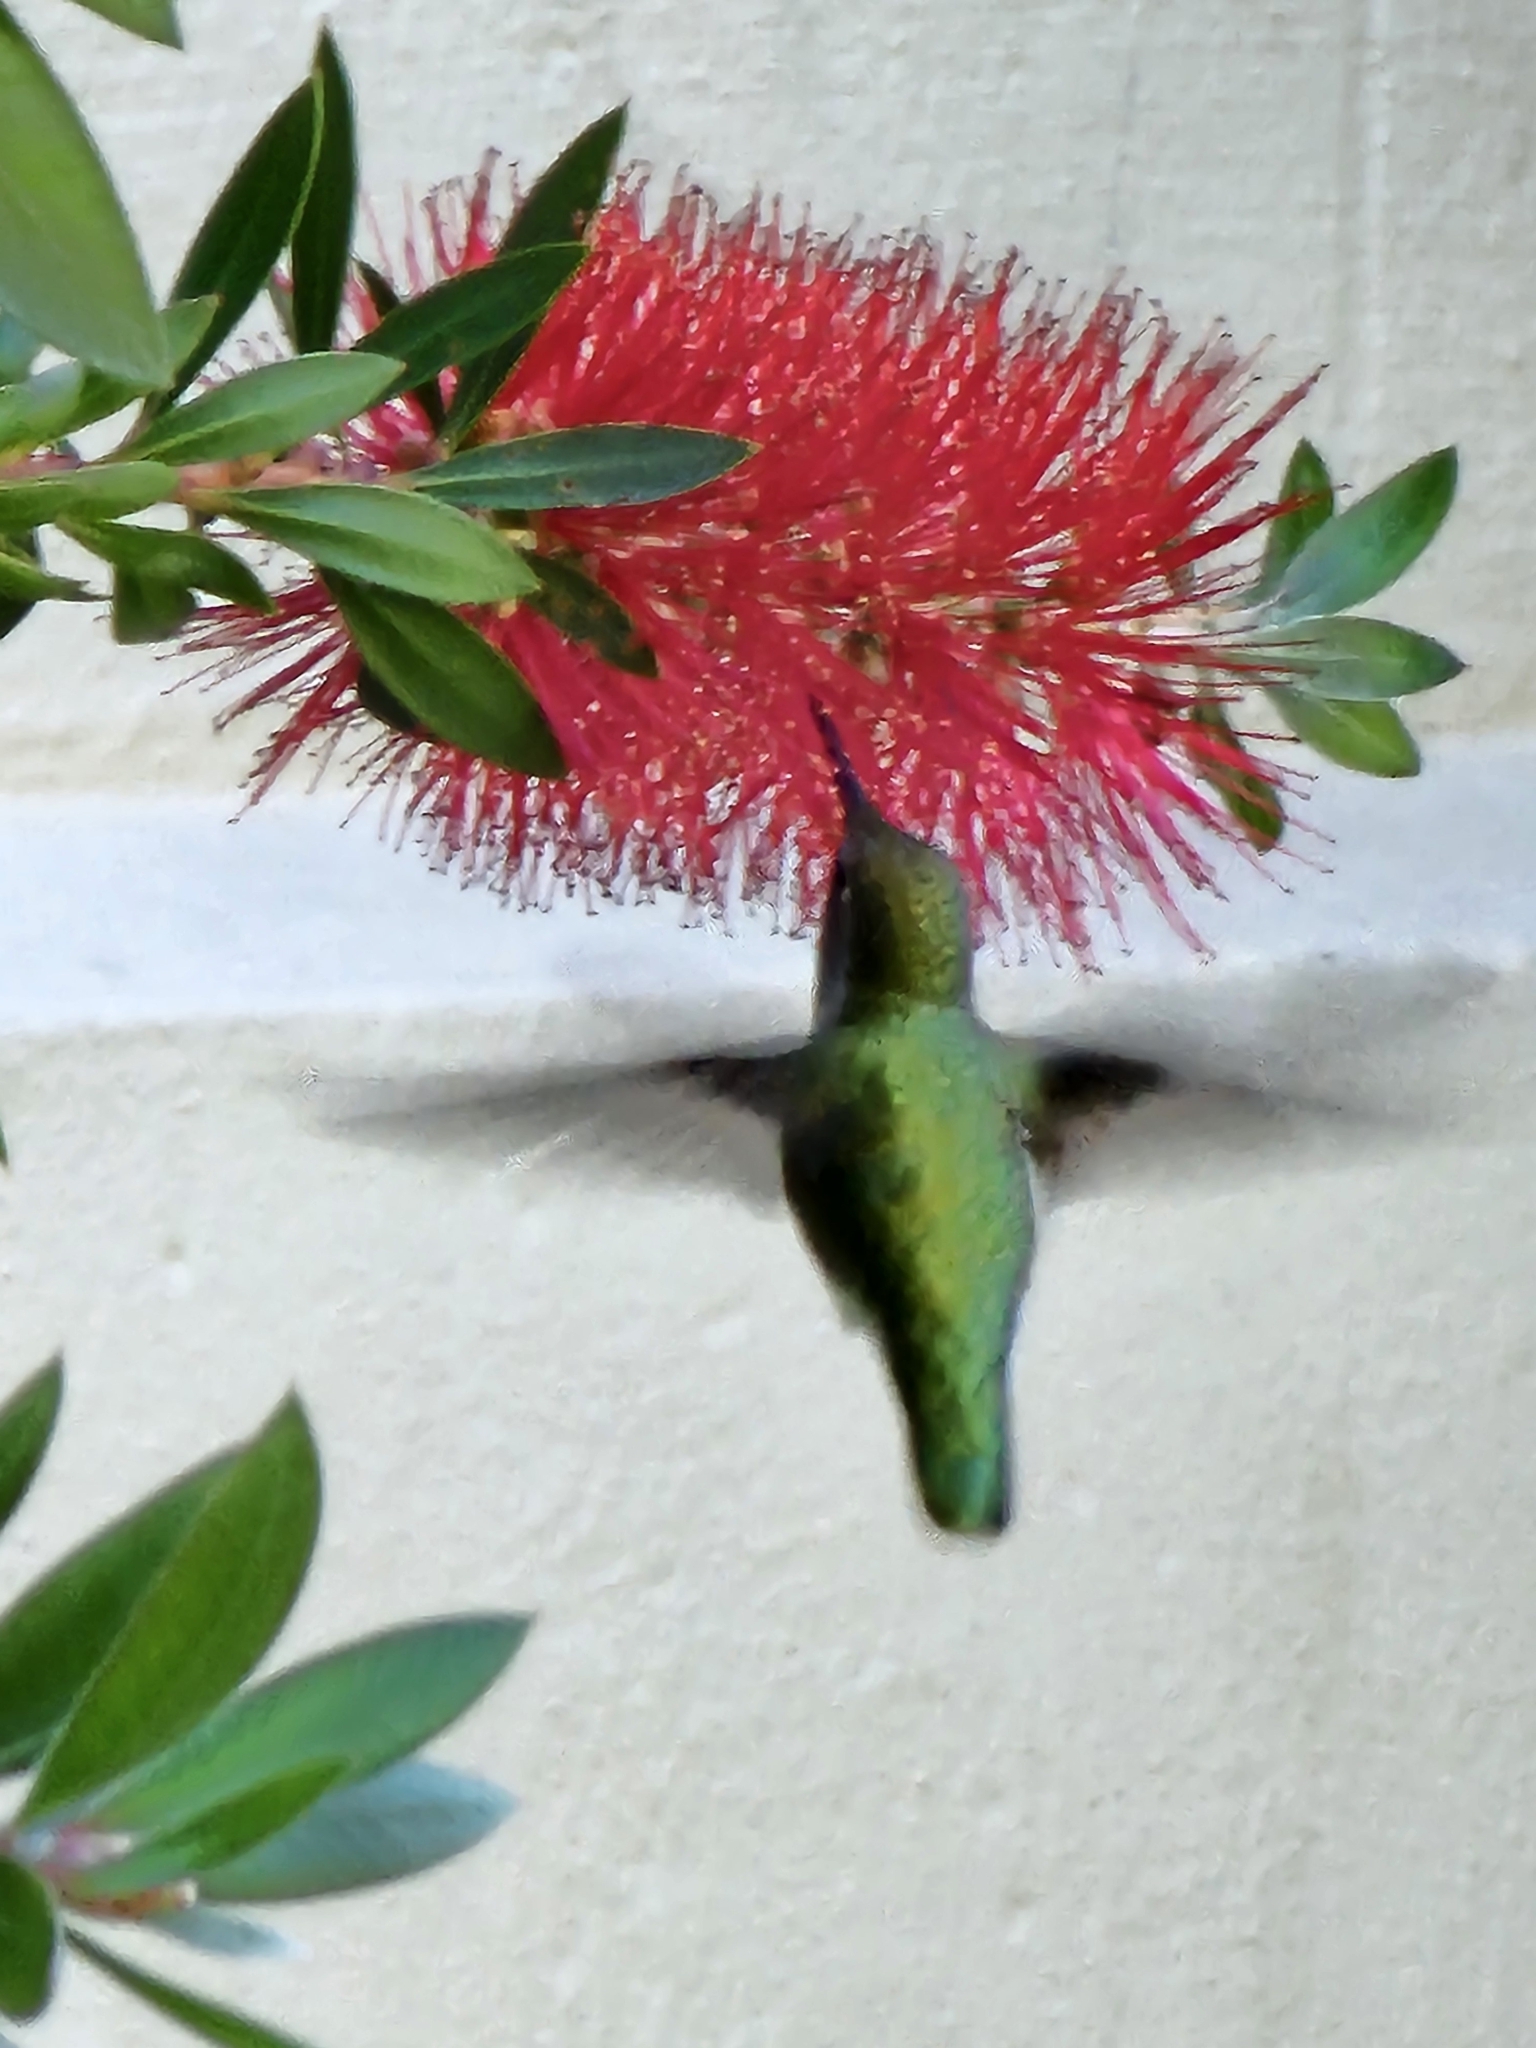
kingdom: Animalia
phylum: Chordata
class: Aves
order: Apodiformes
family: Trochilidae
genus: Calypte
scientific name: Calypte anna
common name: Anna's hummingbird
